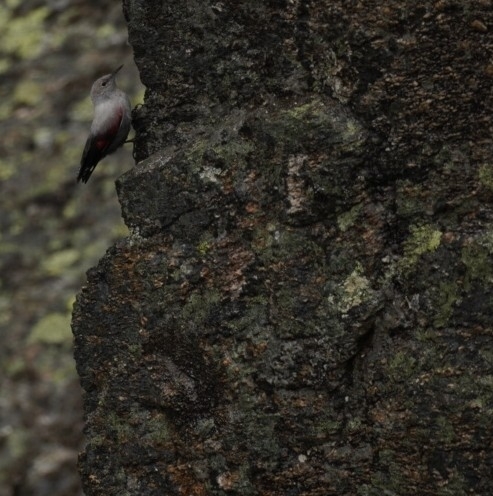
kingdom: Animalia
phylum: Chordata
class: Aves
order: Passeriformes
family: Tichodromidae
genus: Tichodroma
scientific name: Tichodroma muraria
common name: Wallcreeper
